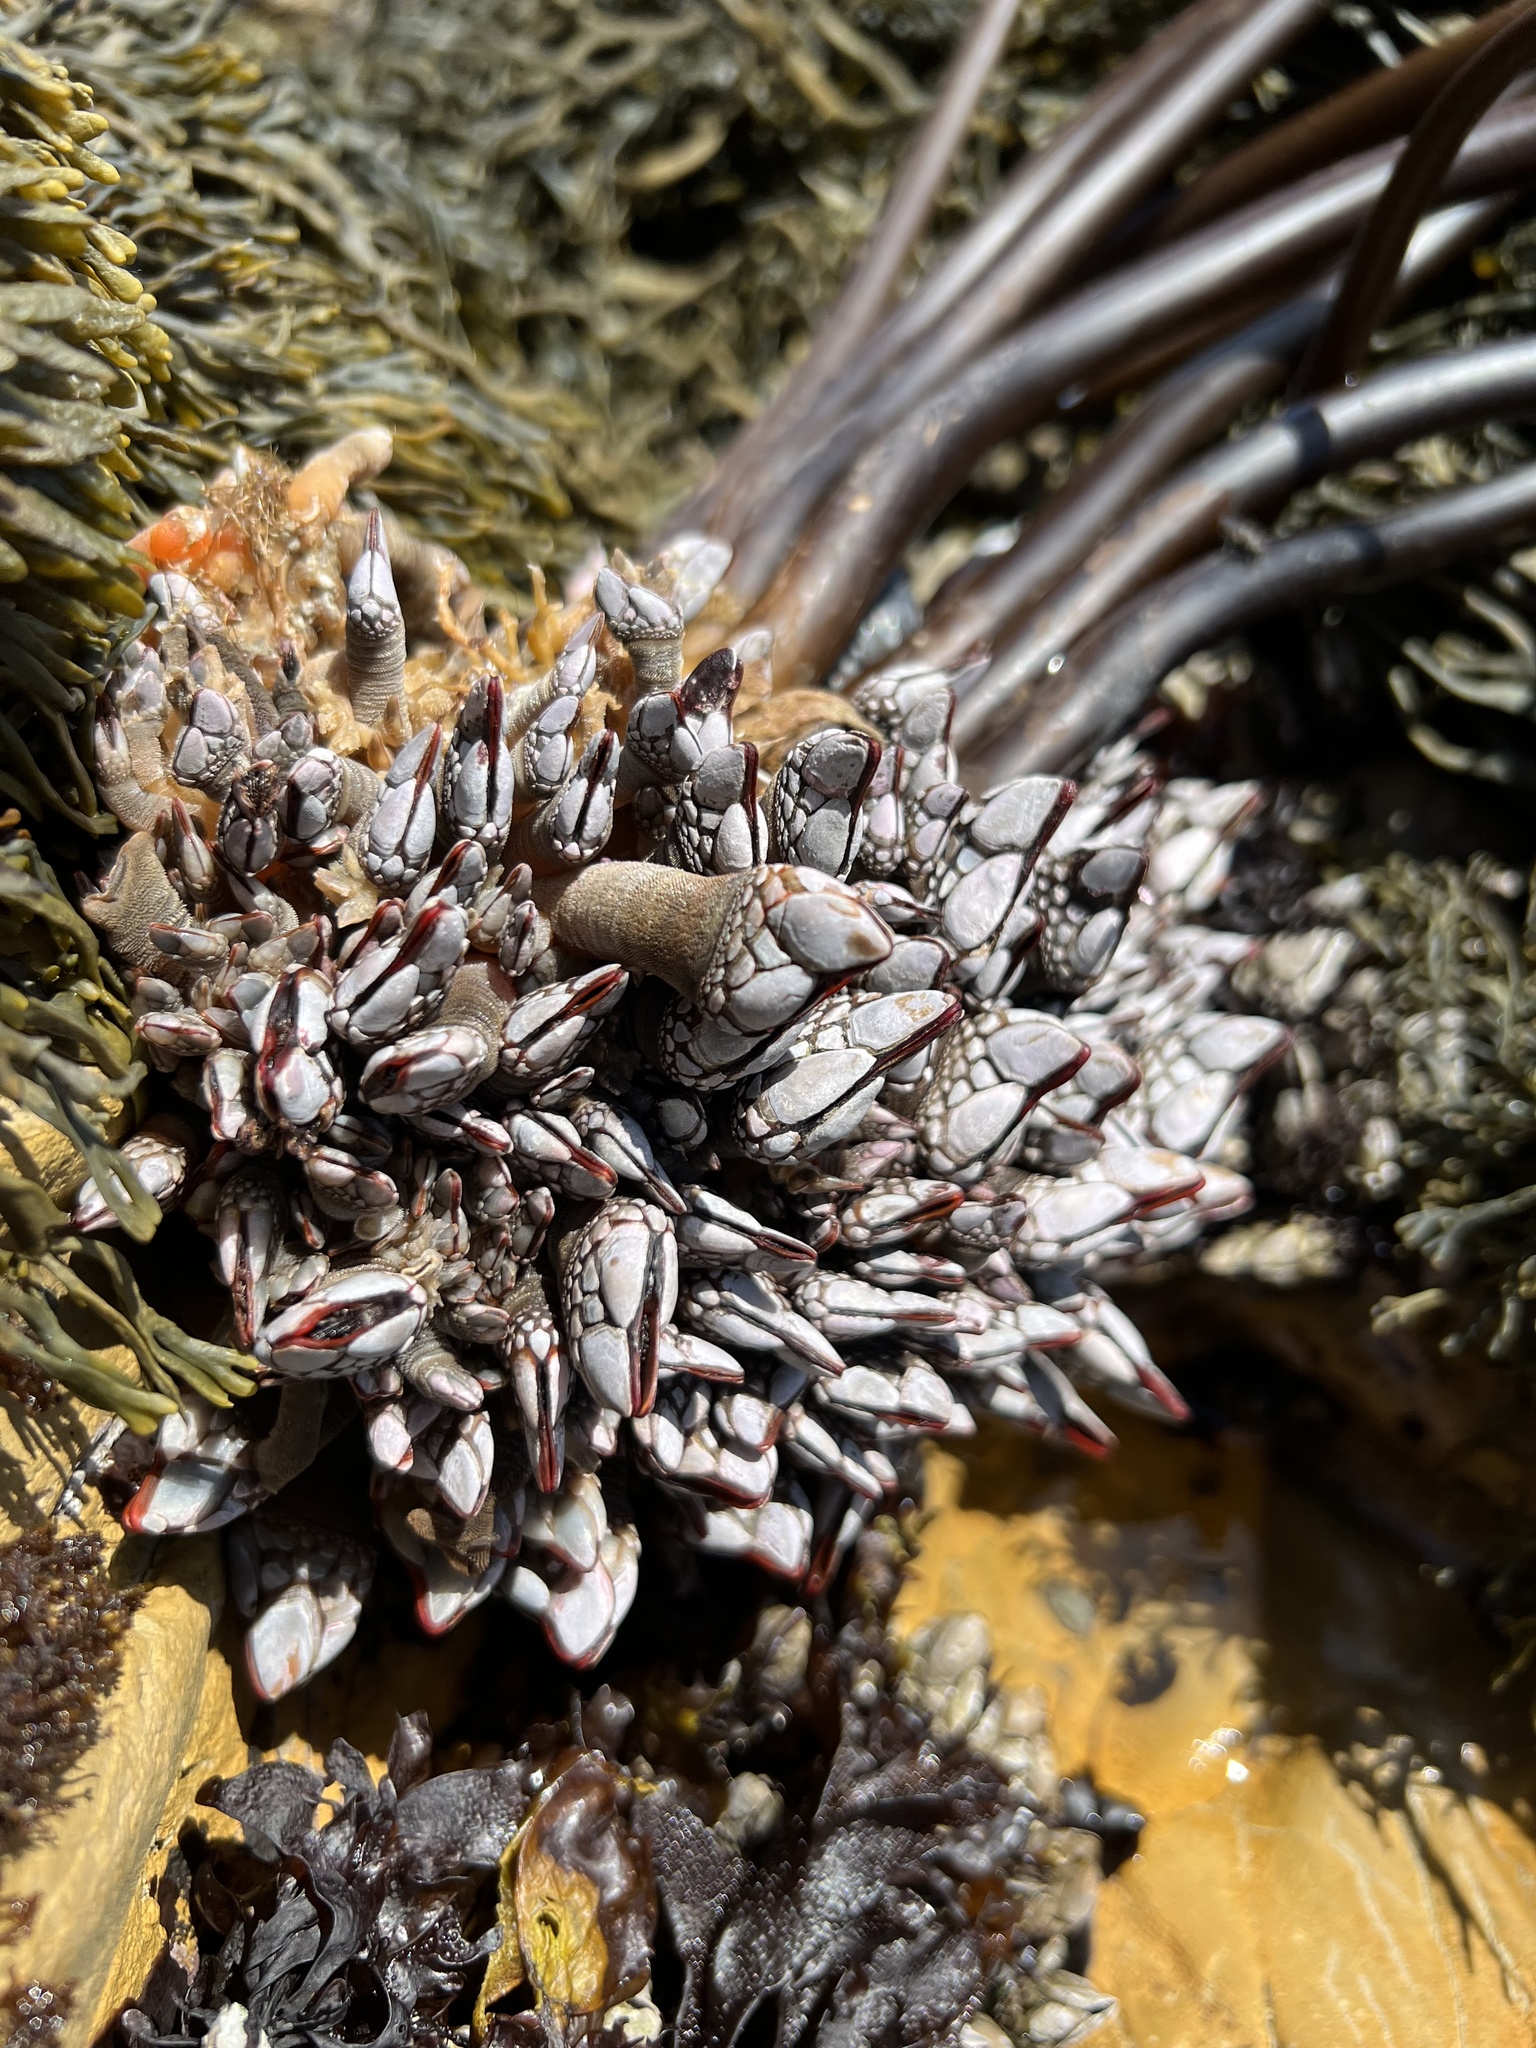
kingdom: Animalia
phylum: Arthropoda
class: Maxillopoda
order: Pedunculata
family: Pollicipedidae
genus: Pollicipes
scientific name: Pollicipes polymerus
